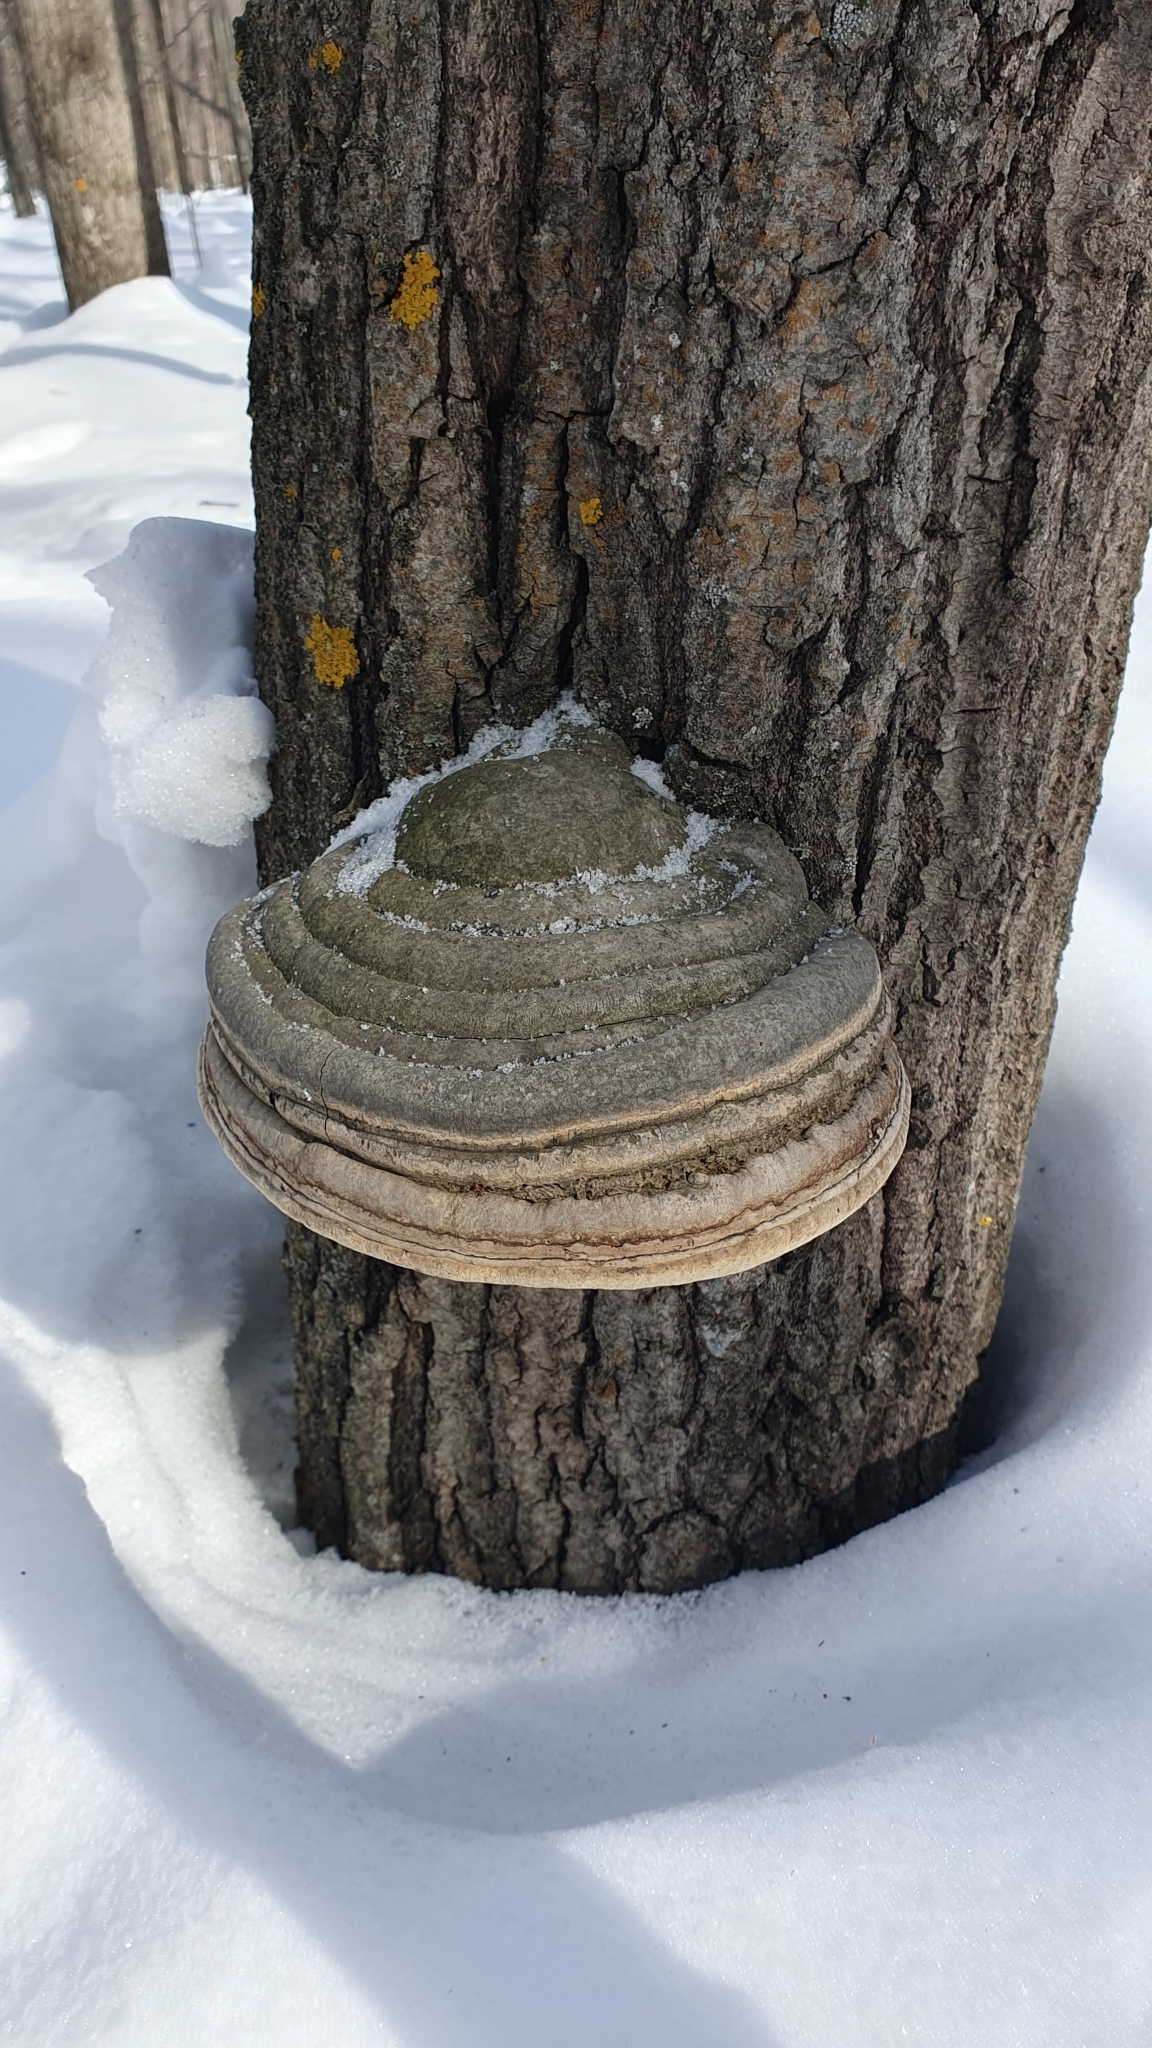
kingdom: Fungi
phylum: Basidiomycota
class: Agaricomycetes
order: Polyporales
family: Polyporaceae
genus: Fomes
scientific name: Fomes fomentarius
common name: Hoof fungus
